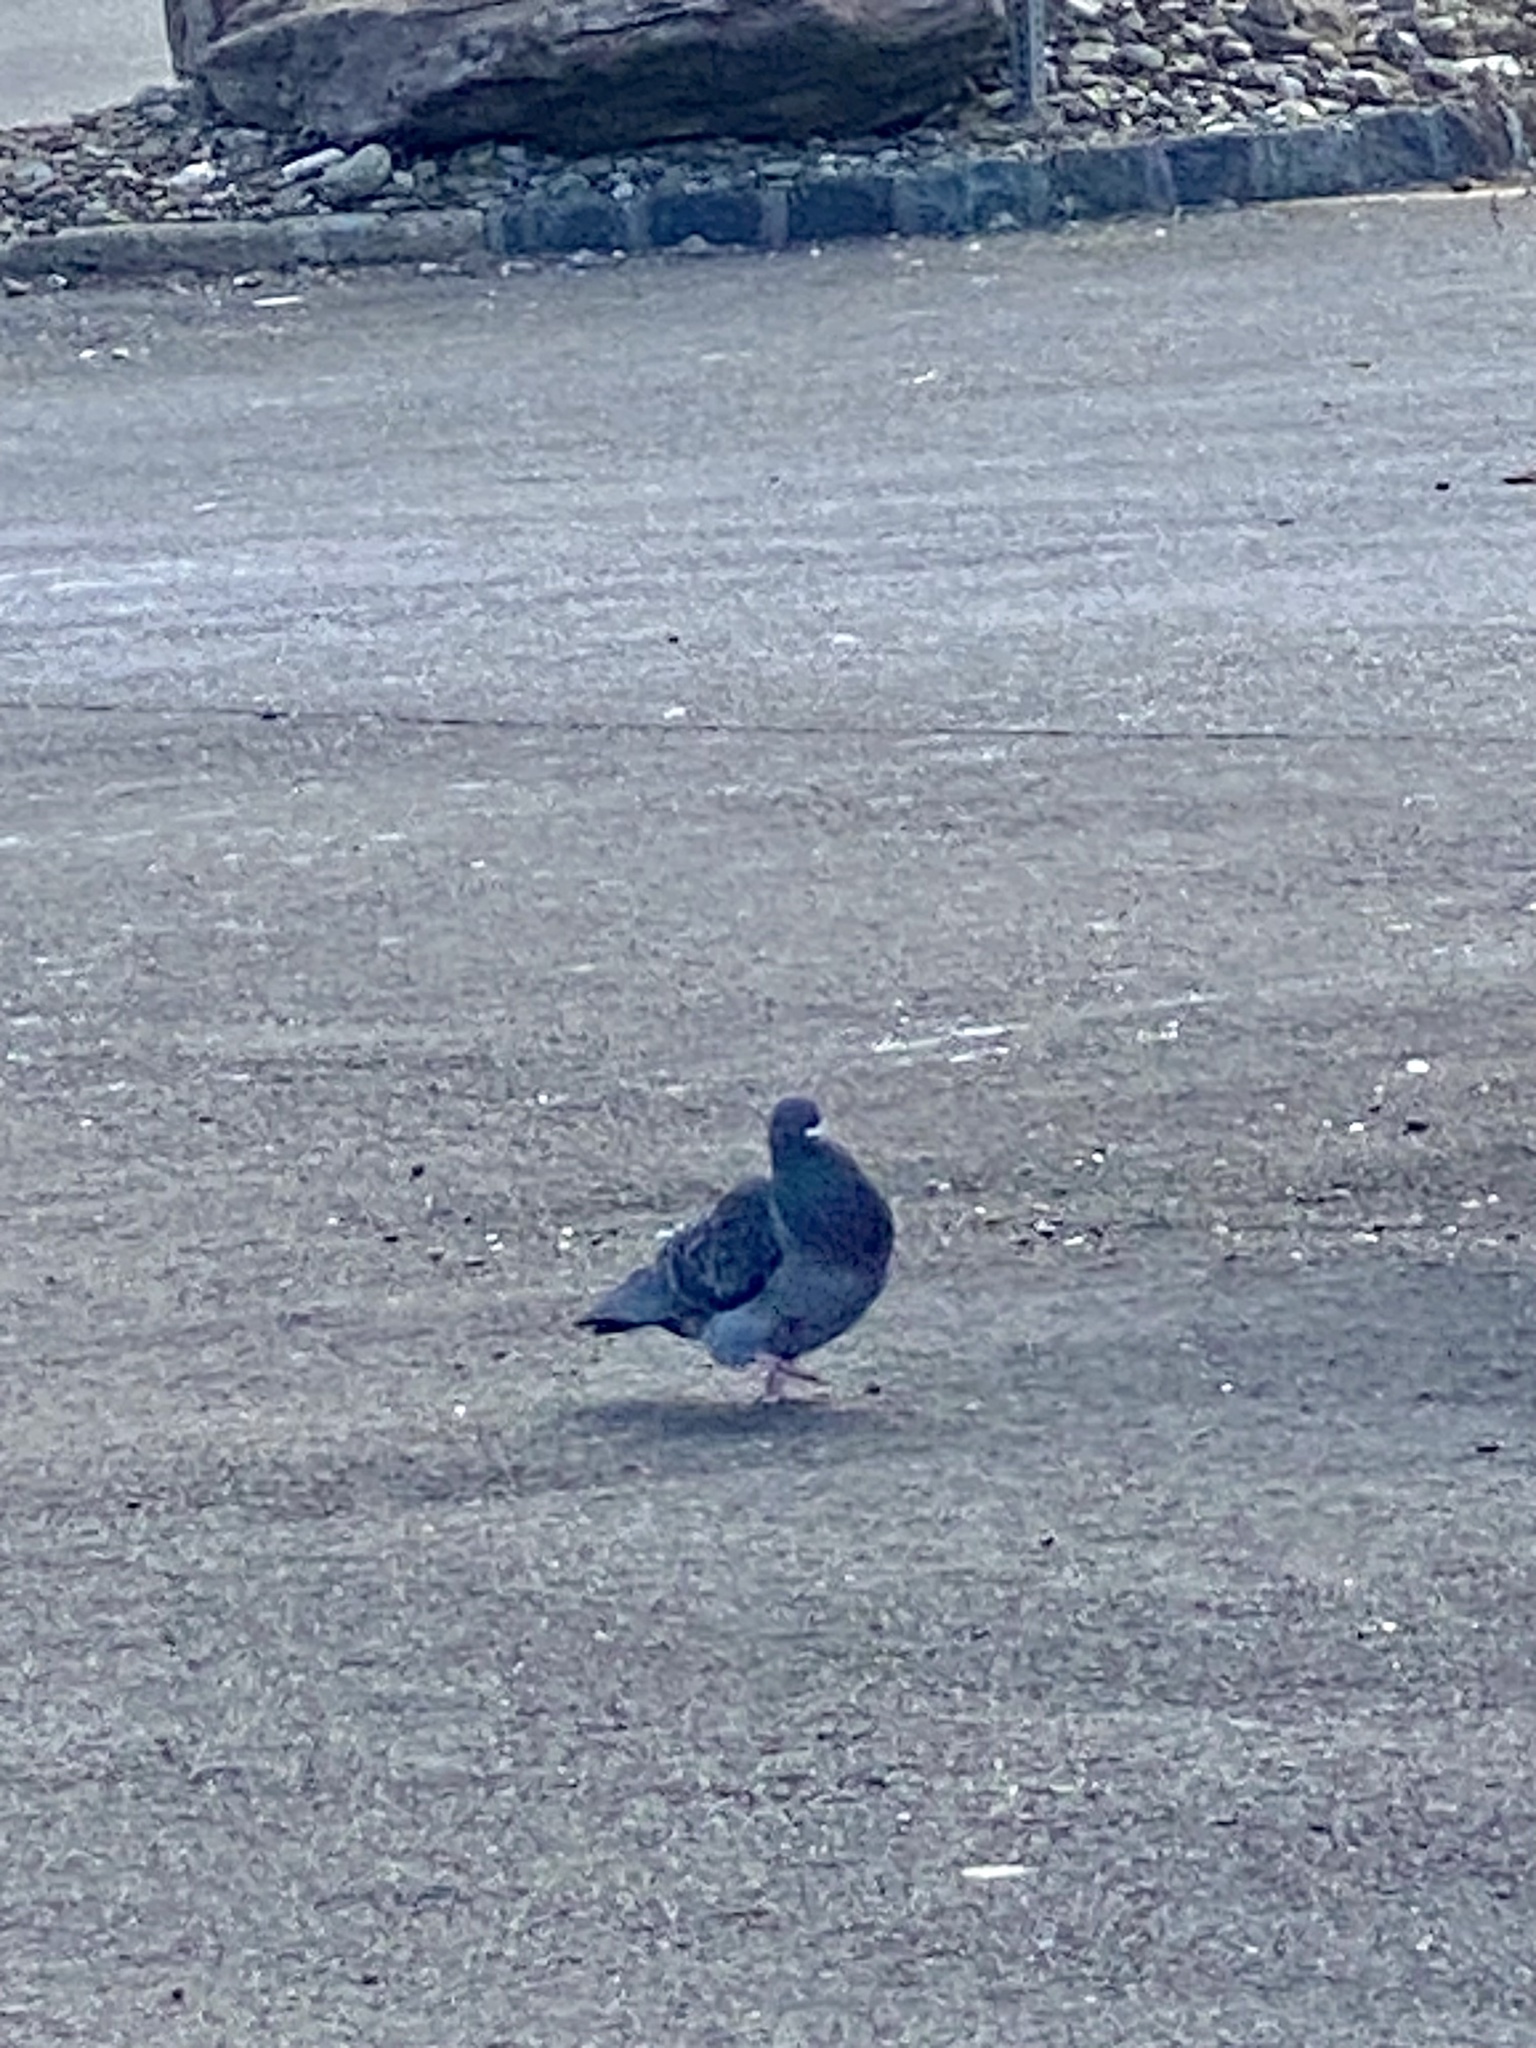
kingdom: Animalia
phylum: Chordata
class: Aves
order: Columbiformes
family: Columbidae
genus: Columba
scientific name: Columba livia
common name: Rock pigeon
